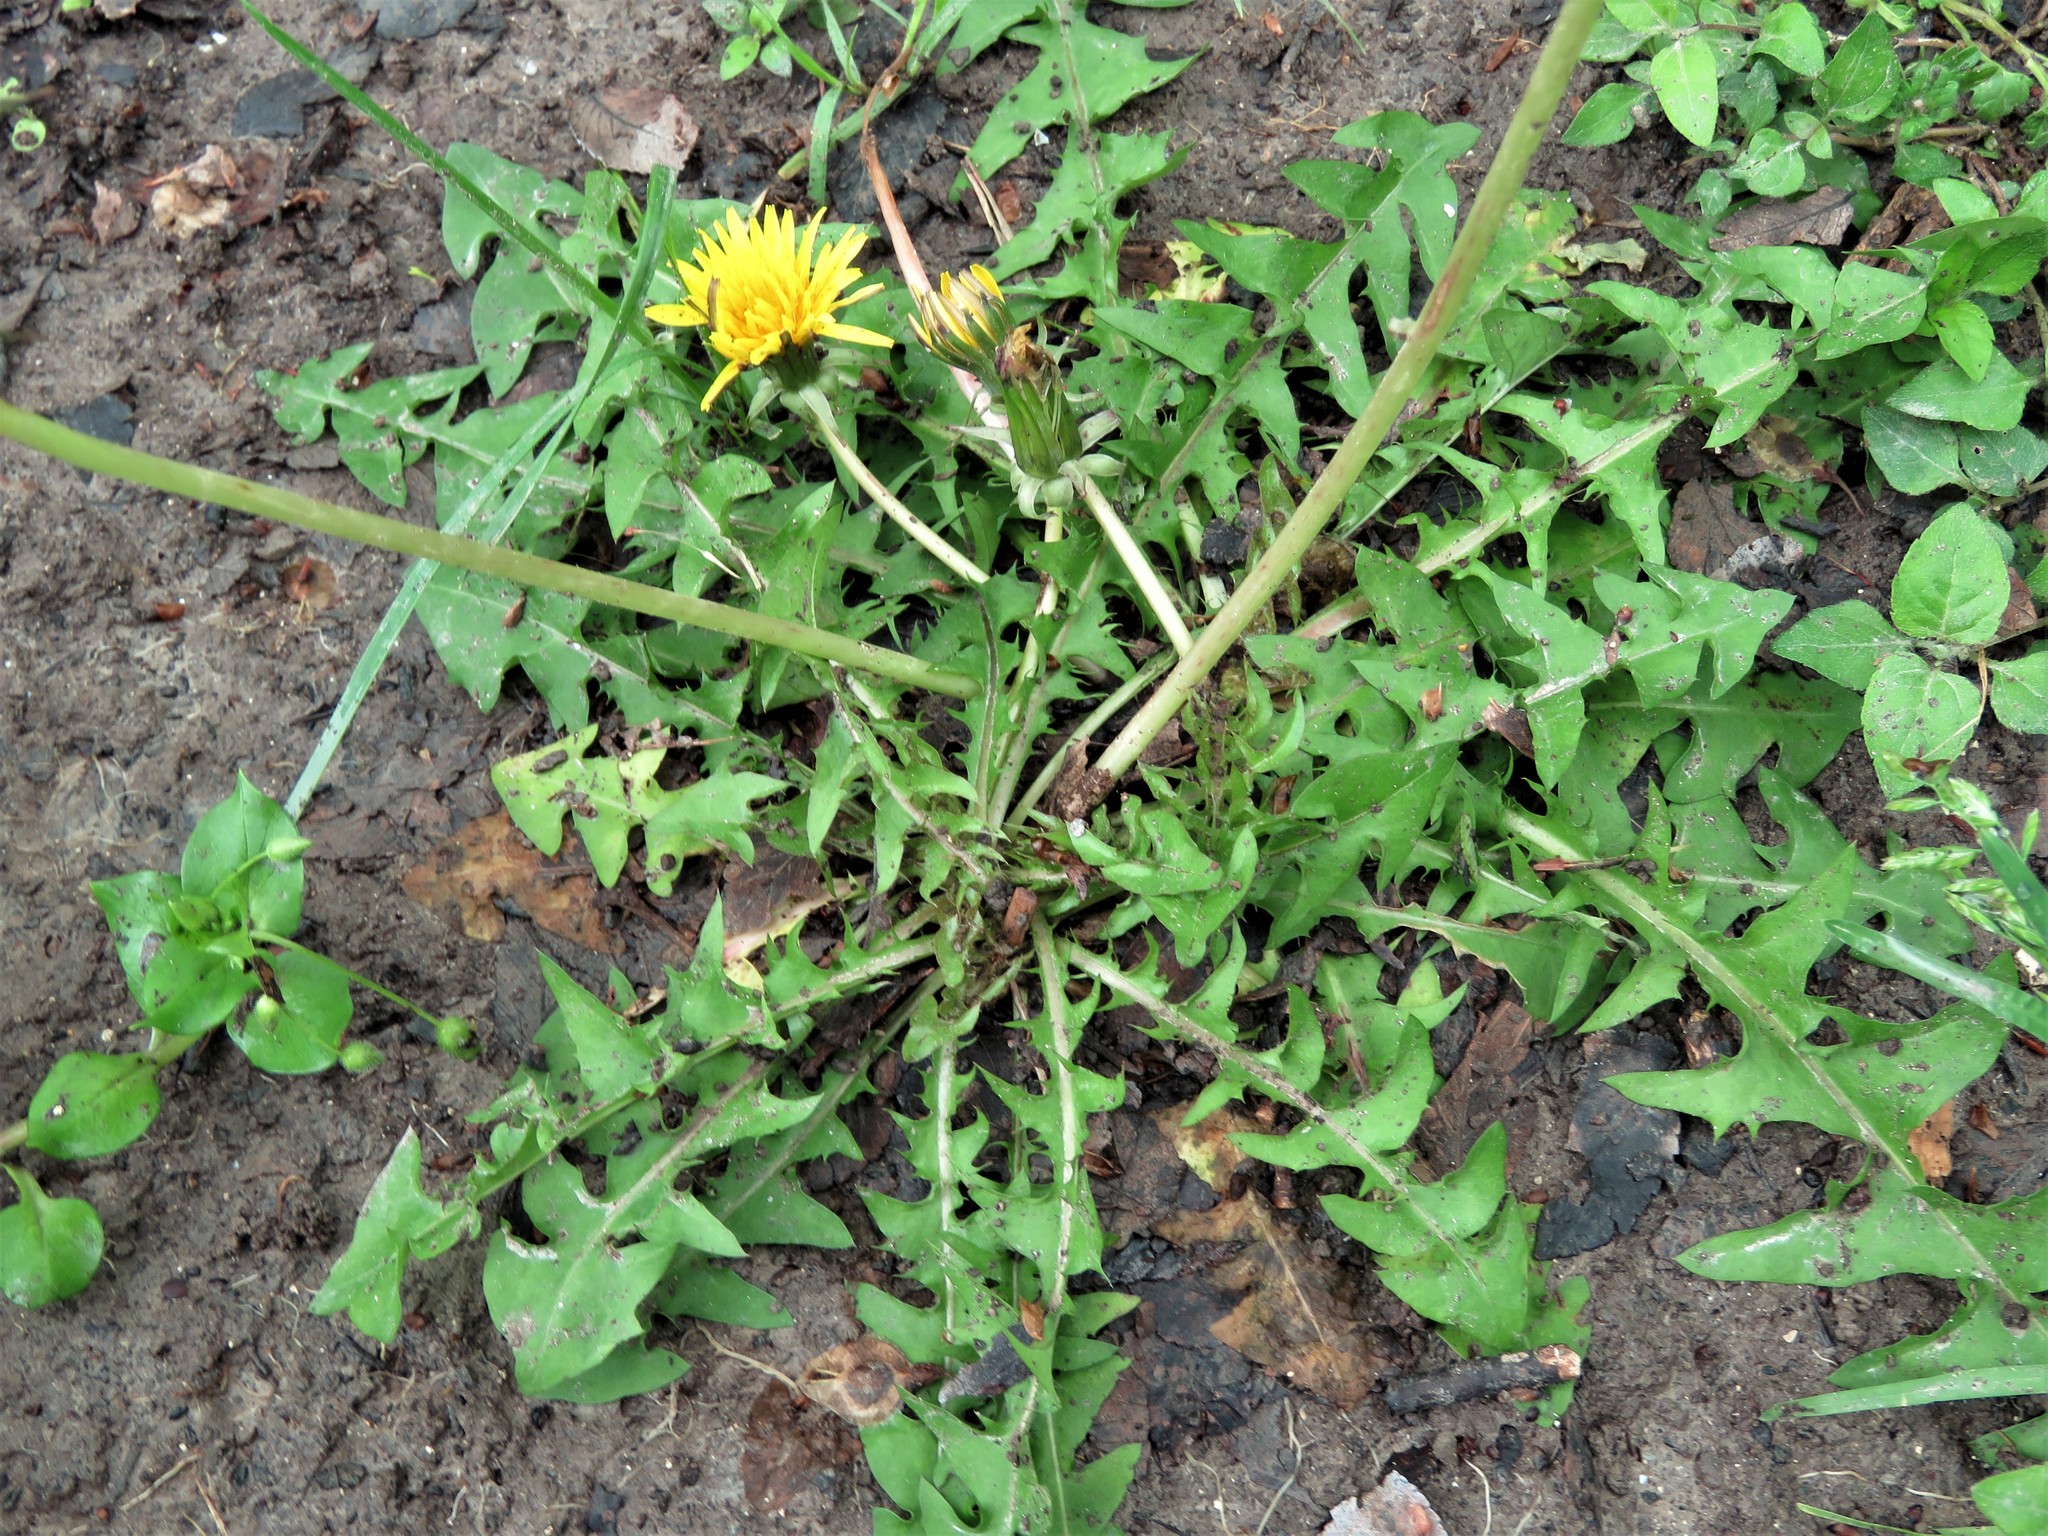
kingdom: Plantae
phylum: Tracheophyta
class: Magnoliopsida
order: Asterales
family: Asteraceae
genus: Taraxacum
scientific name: Taraxacum officinale
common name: Common dandelion
